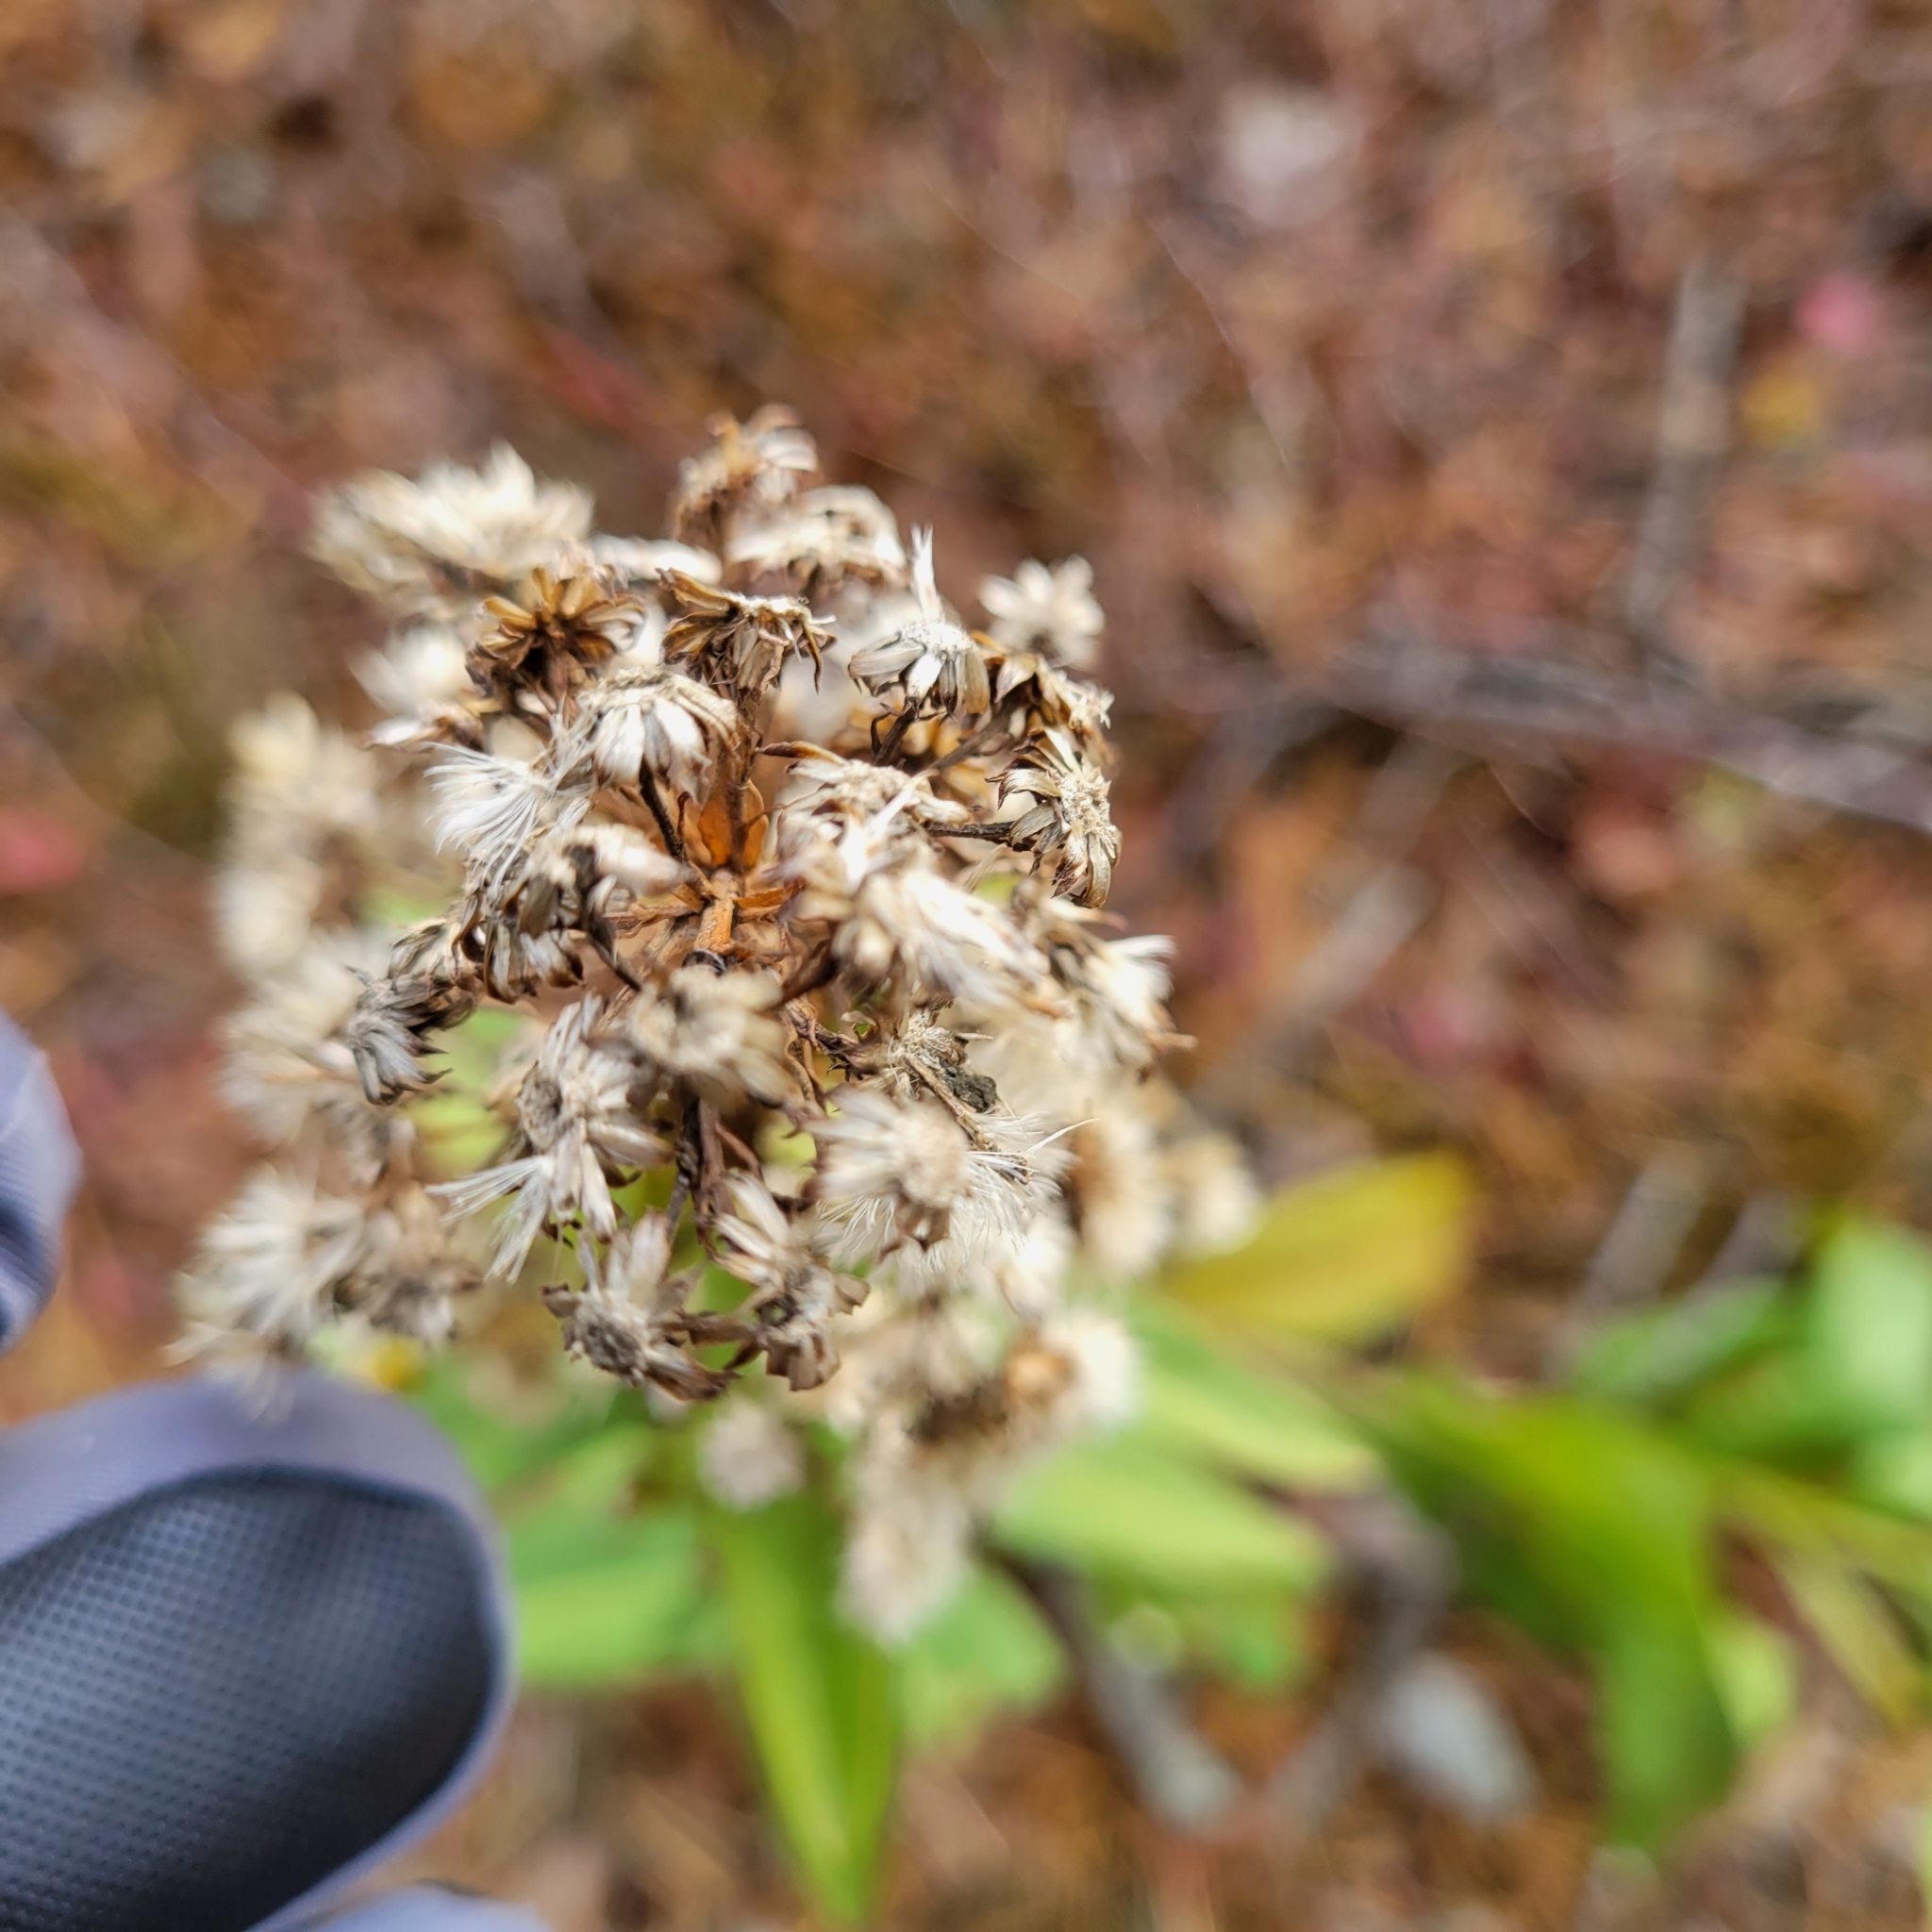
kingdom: Plantae
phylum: Tracheophyta
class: Magnoliopsida
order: Asterales
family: Asteraceae
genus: Solidago
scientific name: Solidago sempervirens
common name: Salt-marsh goldenrod
